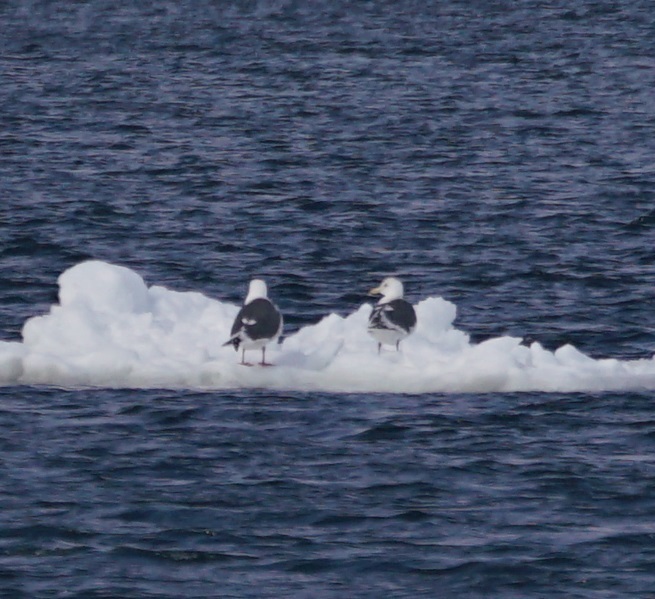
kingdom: Animalia
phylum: Chordata
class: Aves
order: Charadriiformes
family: Laridae
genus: Larus
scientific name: Larus schistisagus
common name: Slaty-backed gull
